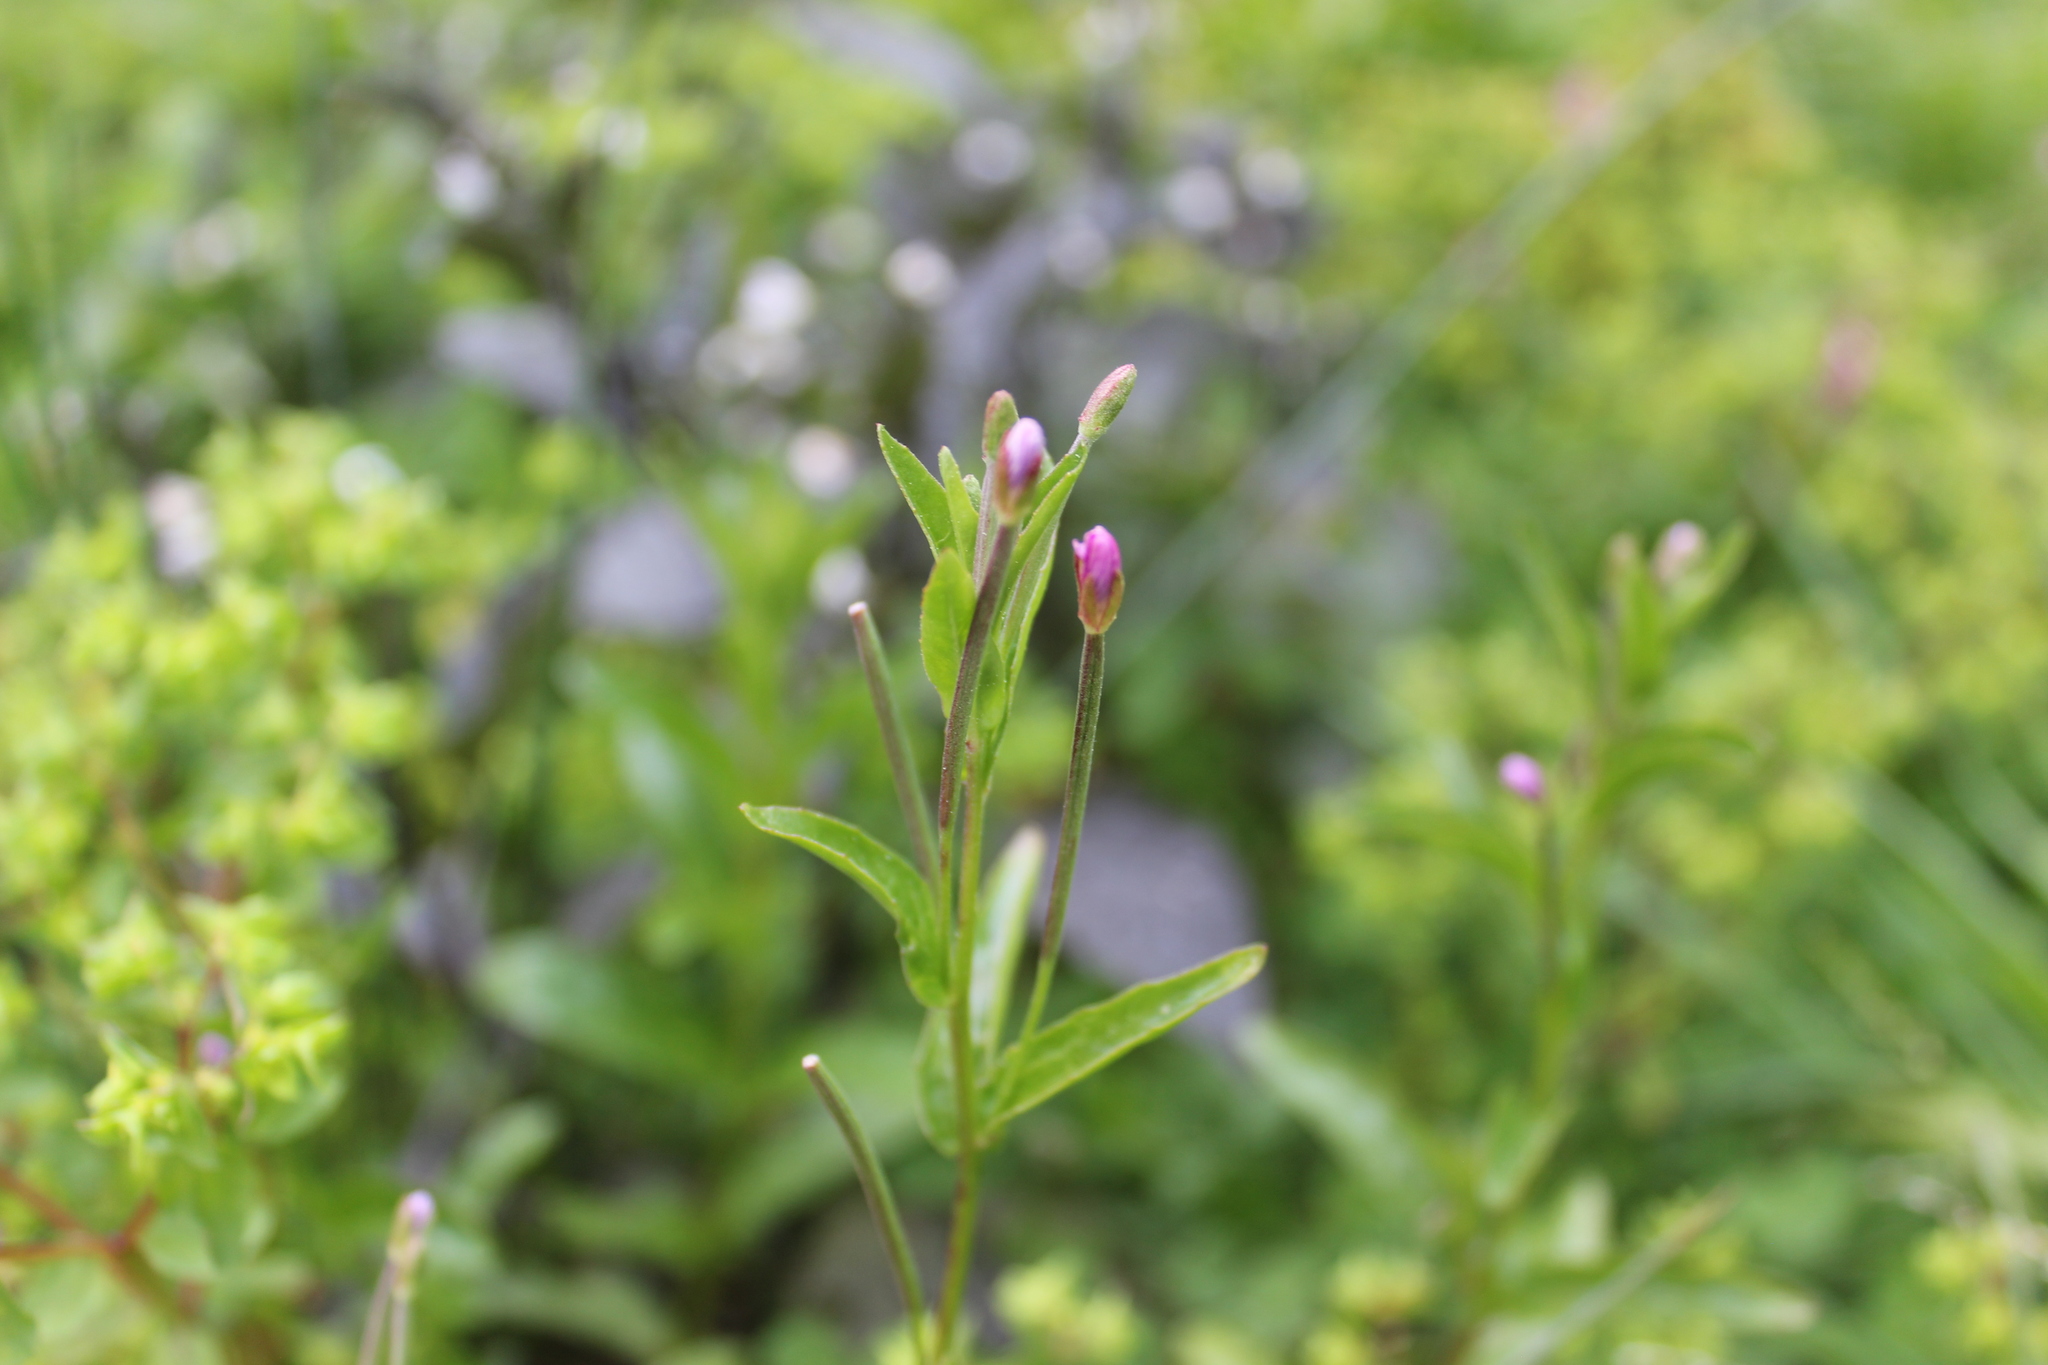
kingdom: Plantae
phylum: Tracheophyta
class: Magnoliopsida
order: Myrtales
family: Onagraceae
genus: Epilobium
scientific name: Epilobium ciliatum
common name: American willowherb
